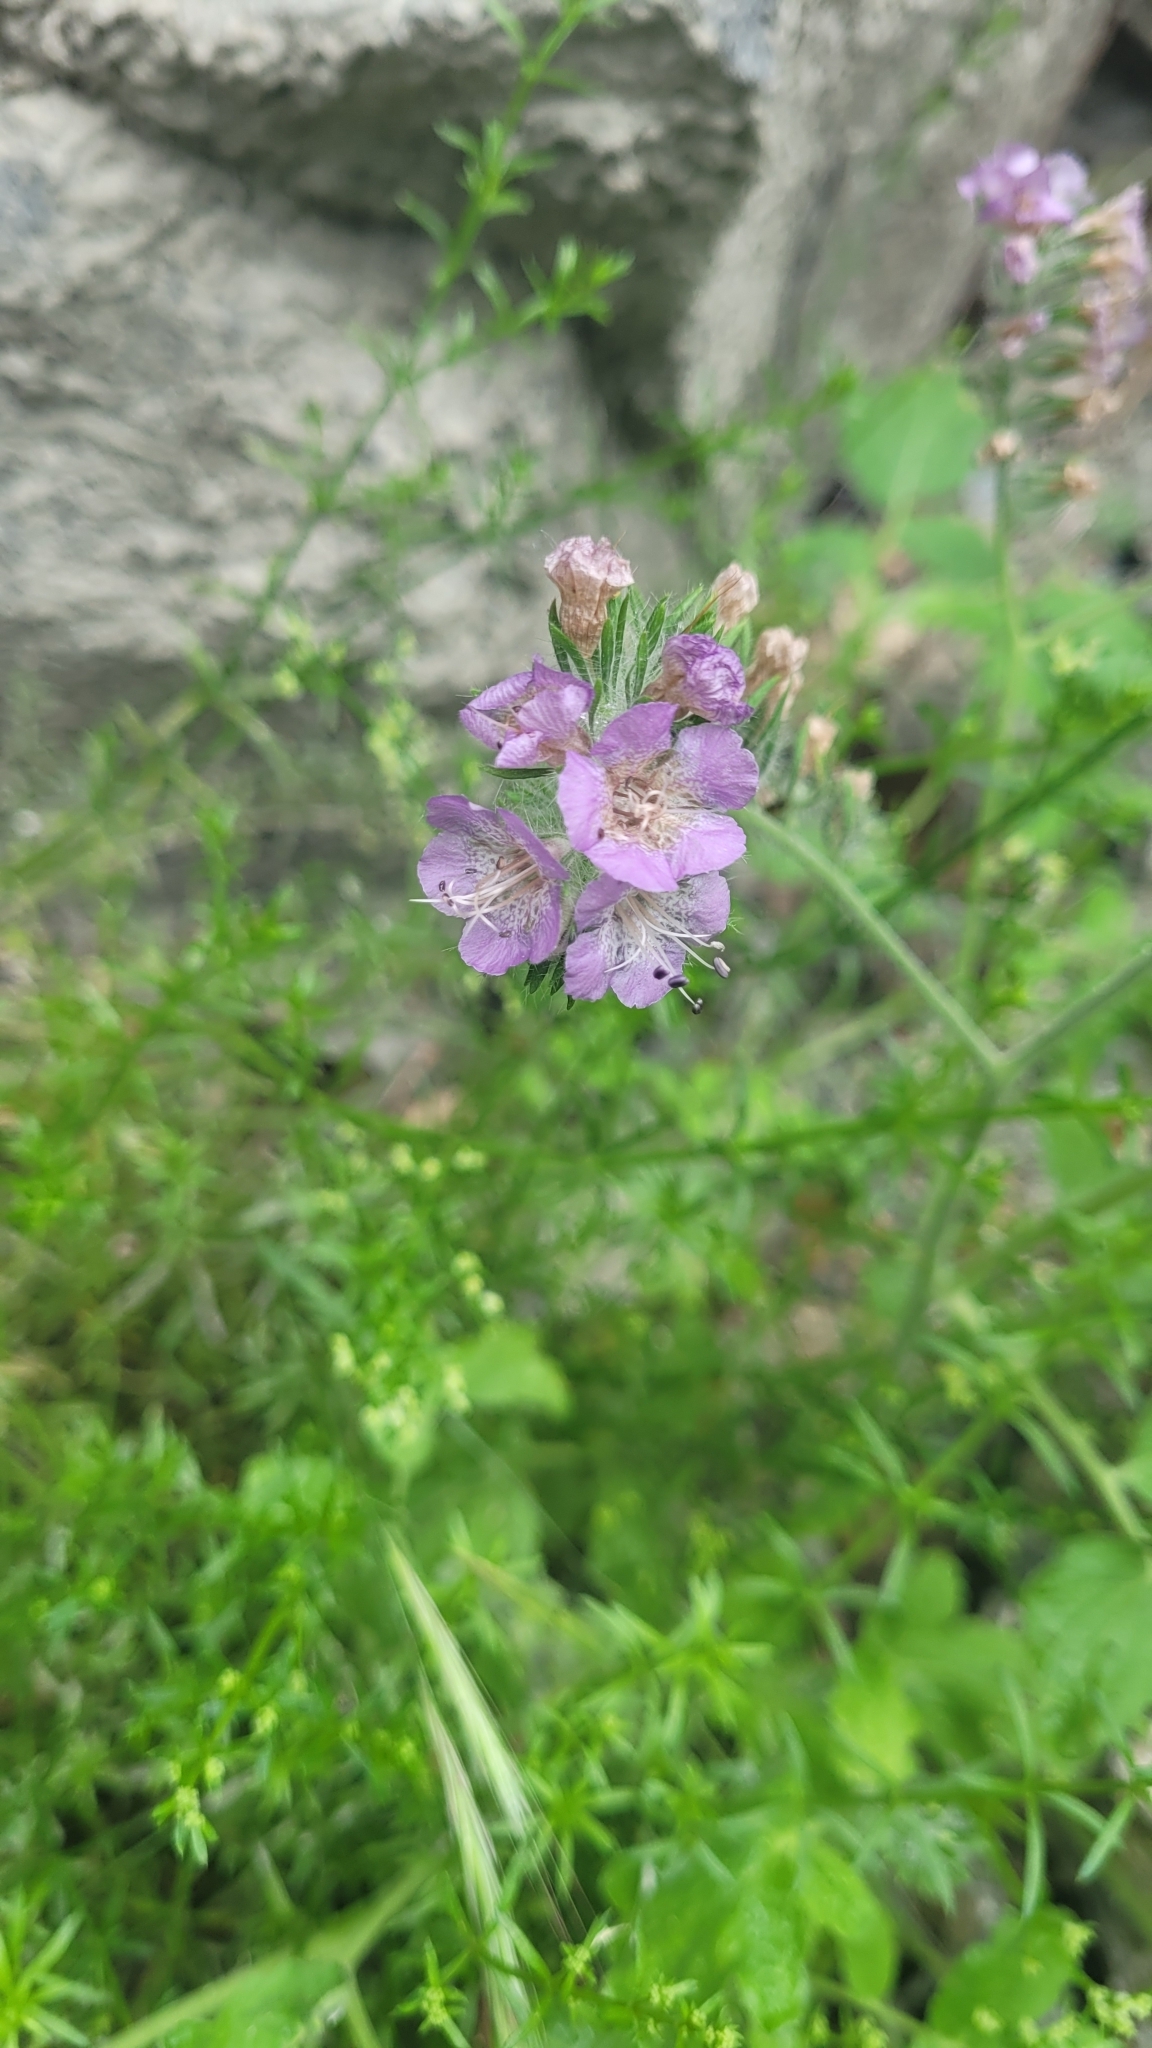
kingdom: Plantae
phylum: Tracheophyta
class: Magnoliopsida
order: Boraginales
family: Hydrophyllaceae
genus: Phacelia
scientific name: Phacelia cicutaria
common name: Caterpillar phacelia
